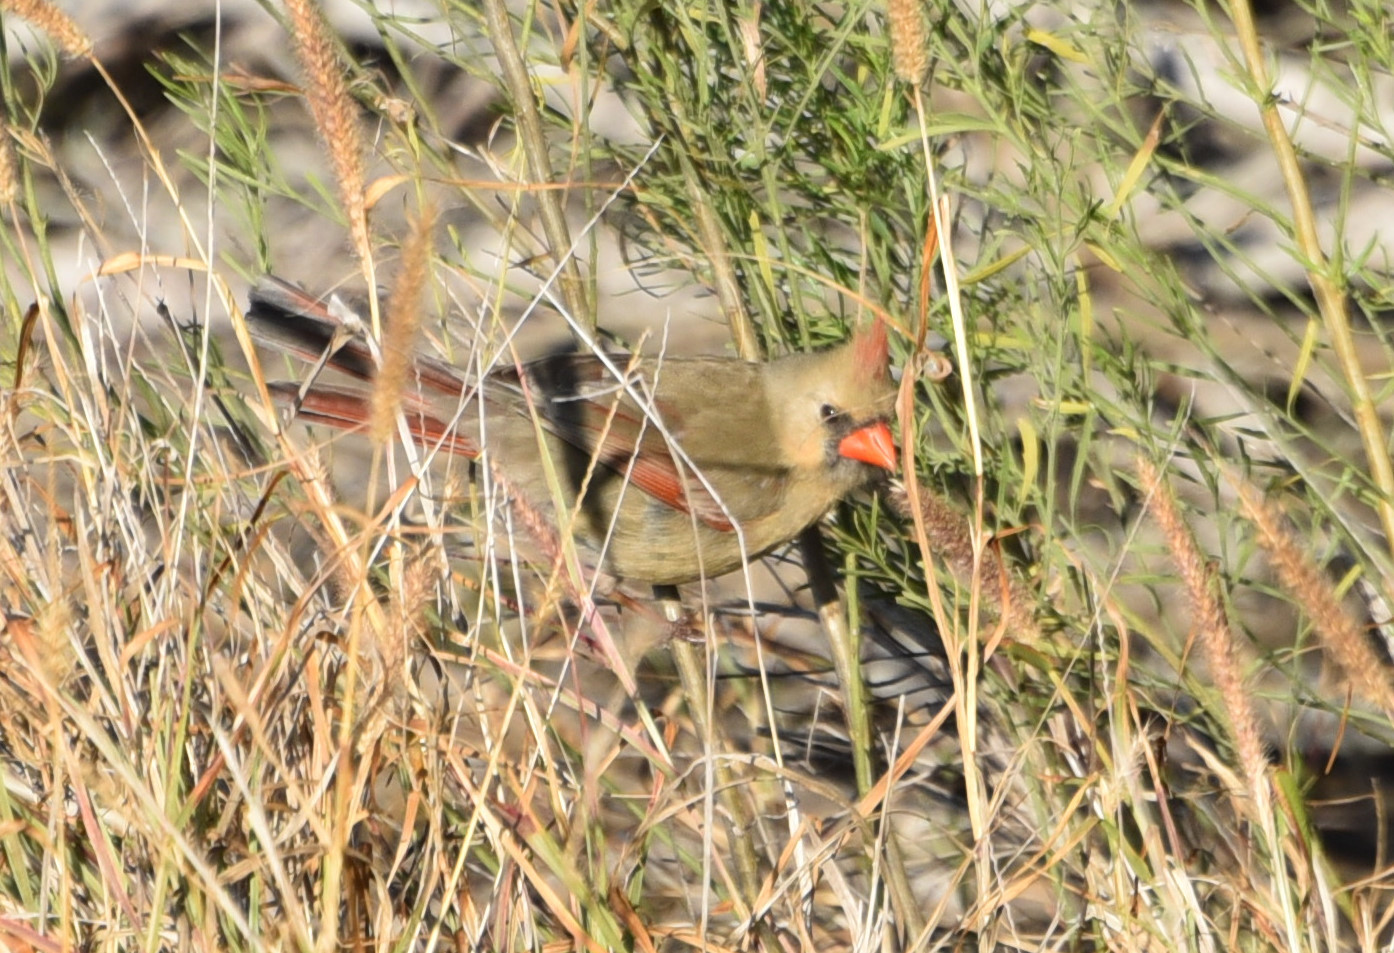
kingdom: Animalia
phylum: Chordata
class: Aves
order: Passeriformes
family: Cardinalidae
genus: Cardinalis
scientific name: Cardinalis cardinalis
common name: Northern cardinal
